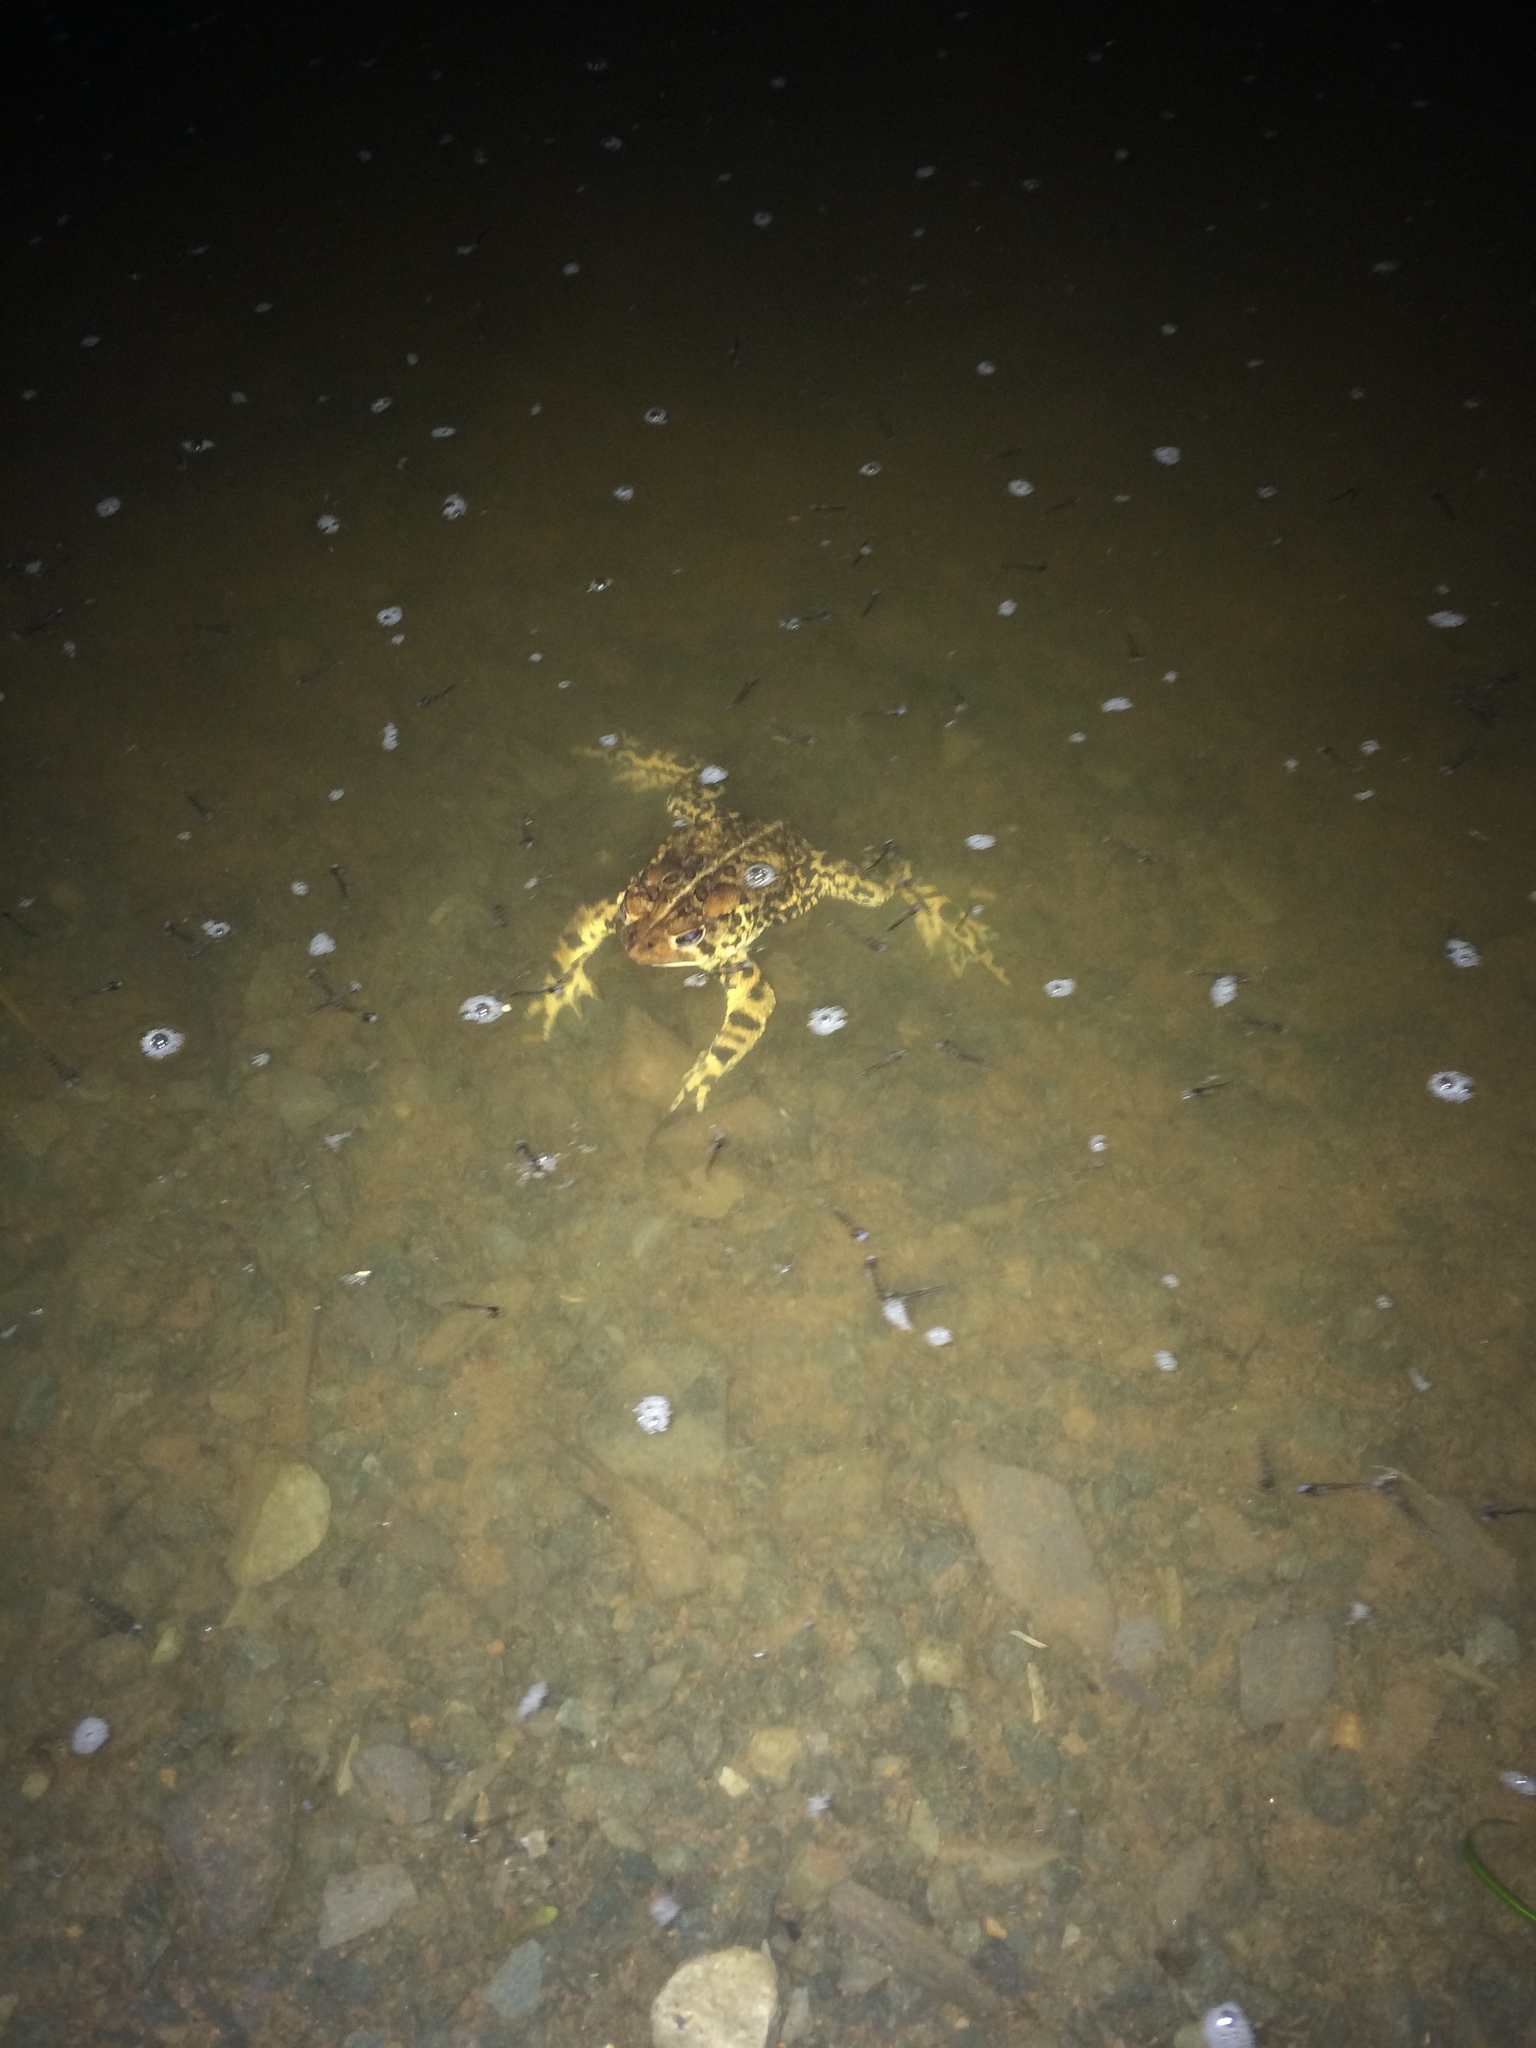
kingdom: Animalia
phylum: Chordata
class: Amphibia
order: Anura
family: Bufonidae
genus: Anaxyrus
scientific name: Anaxyrus americanus
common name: American toad
